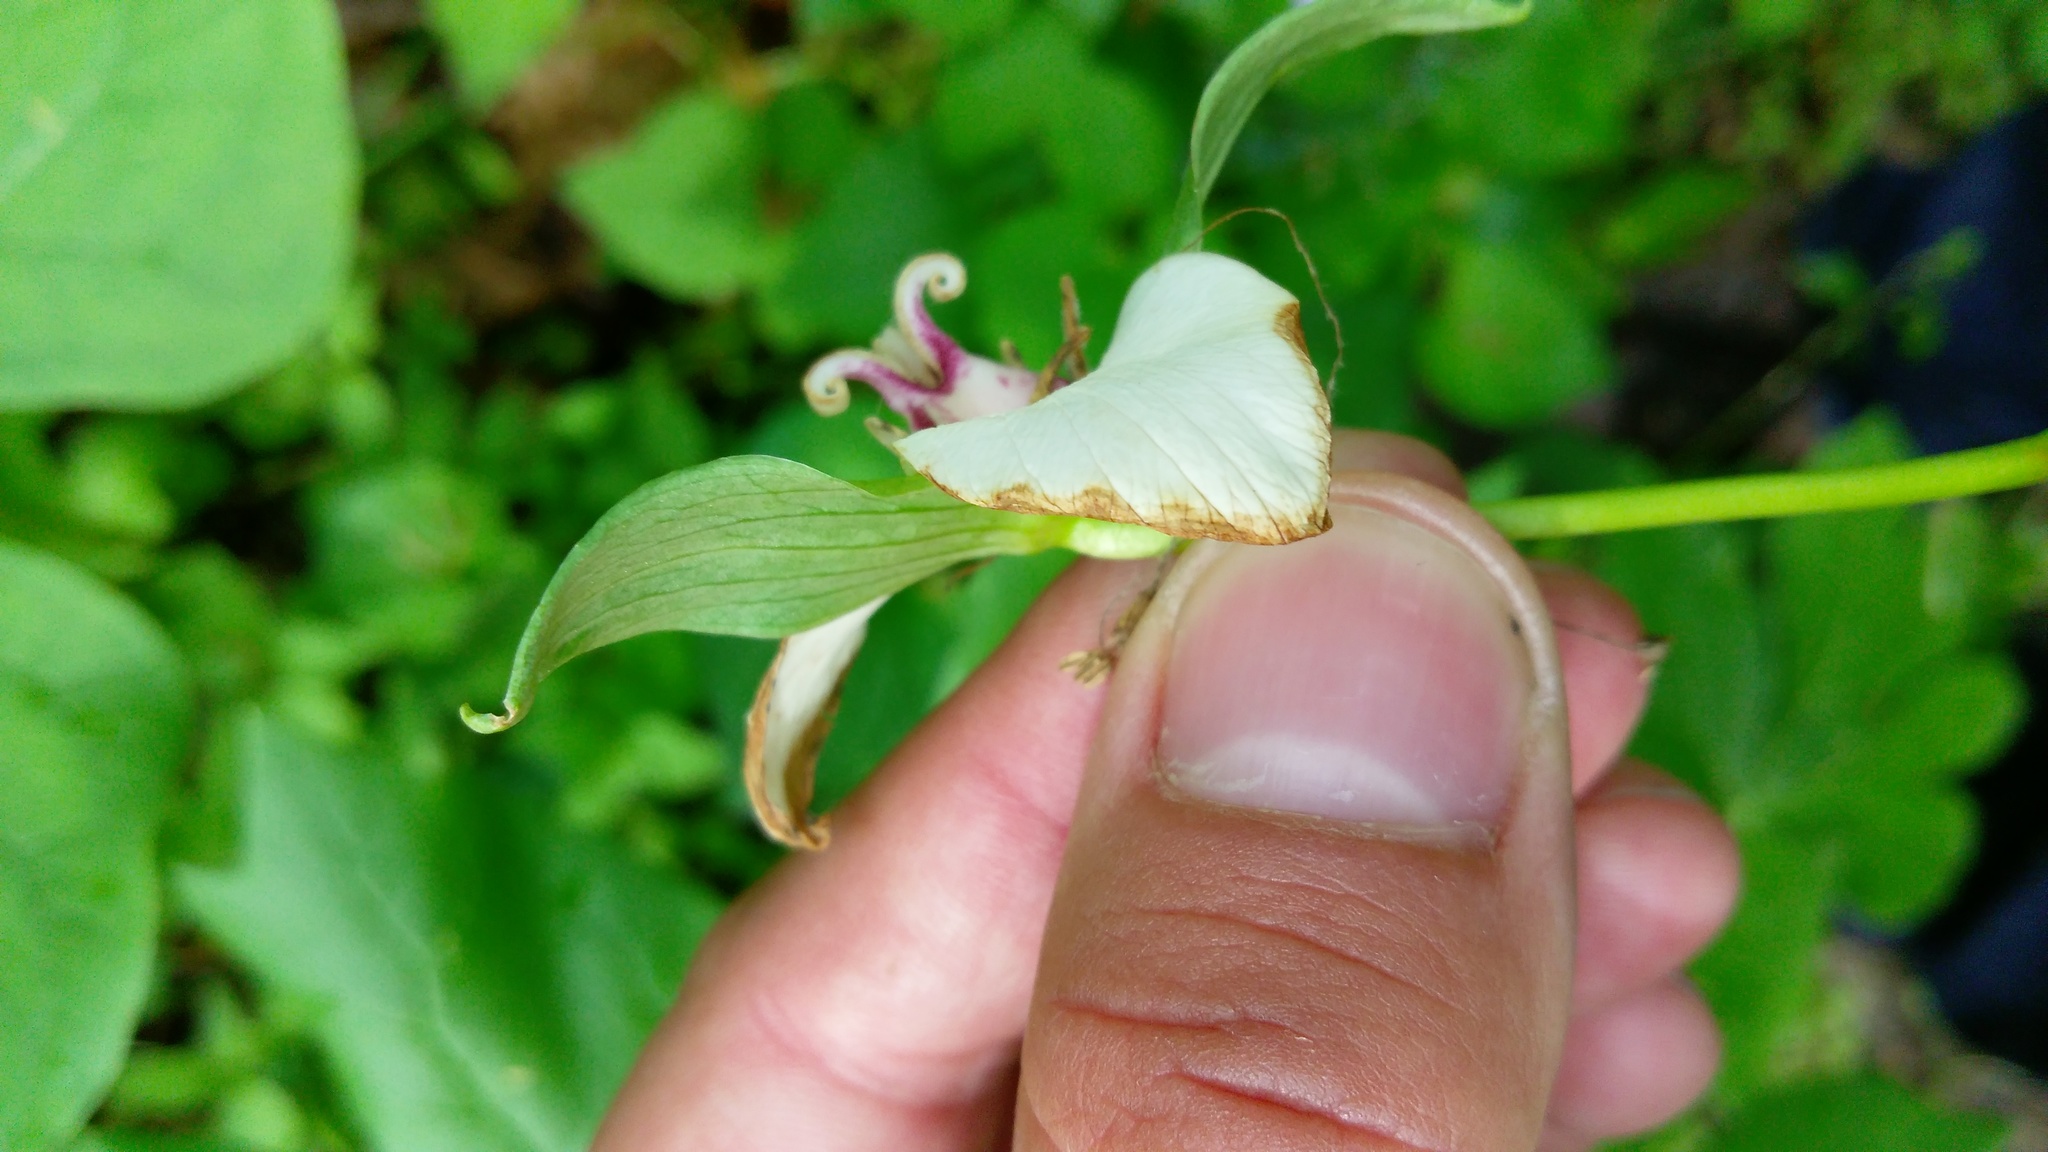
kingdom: Plantae
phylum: Tracheophyta
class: Liliopsida
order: Liliales
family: Melanthiaceae
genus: Trillium
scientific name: Trillium flexipes
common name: Drooping trillium
